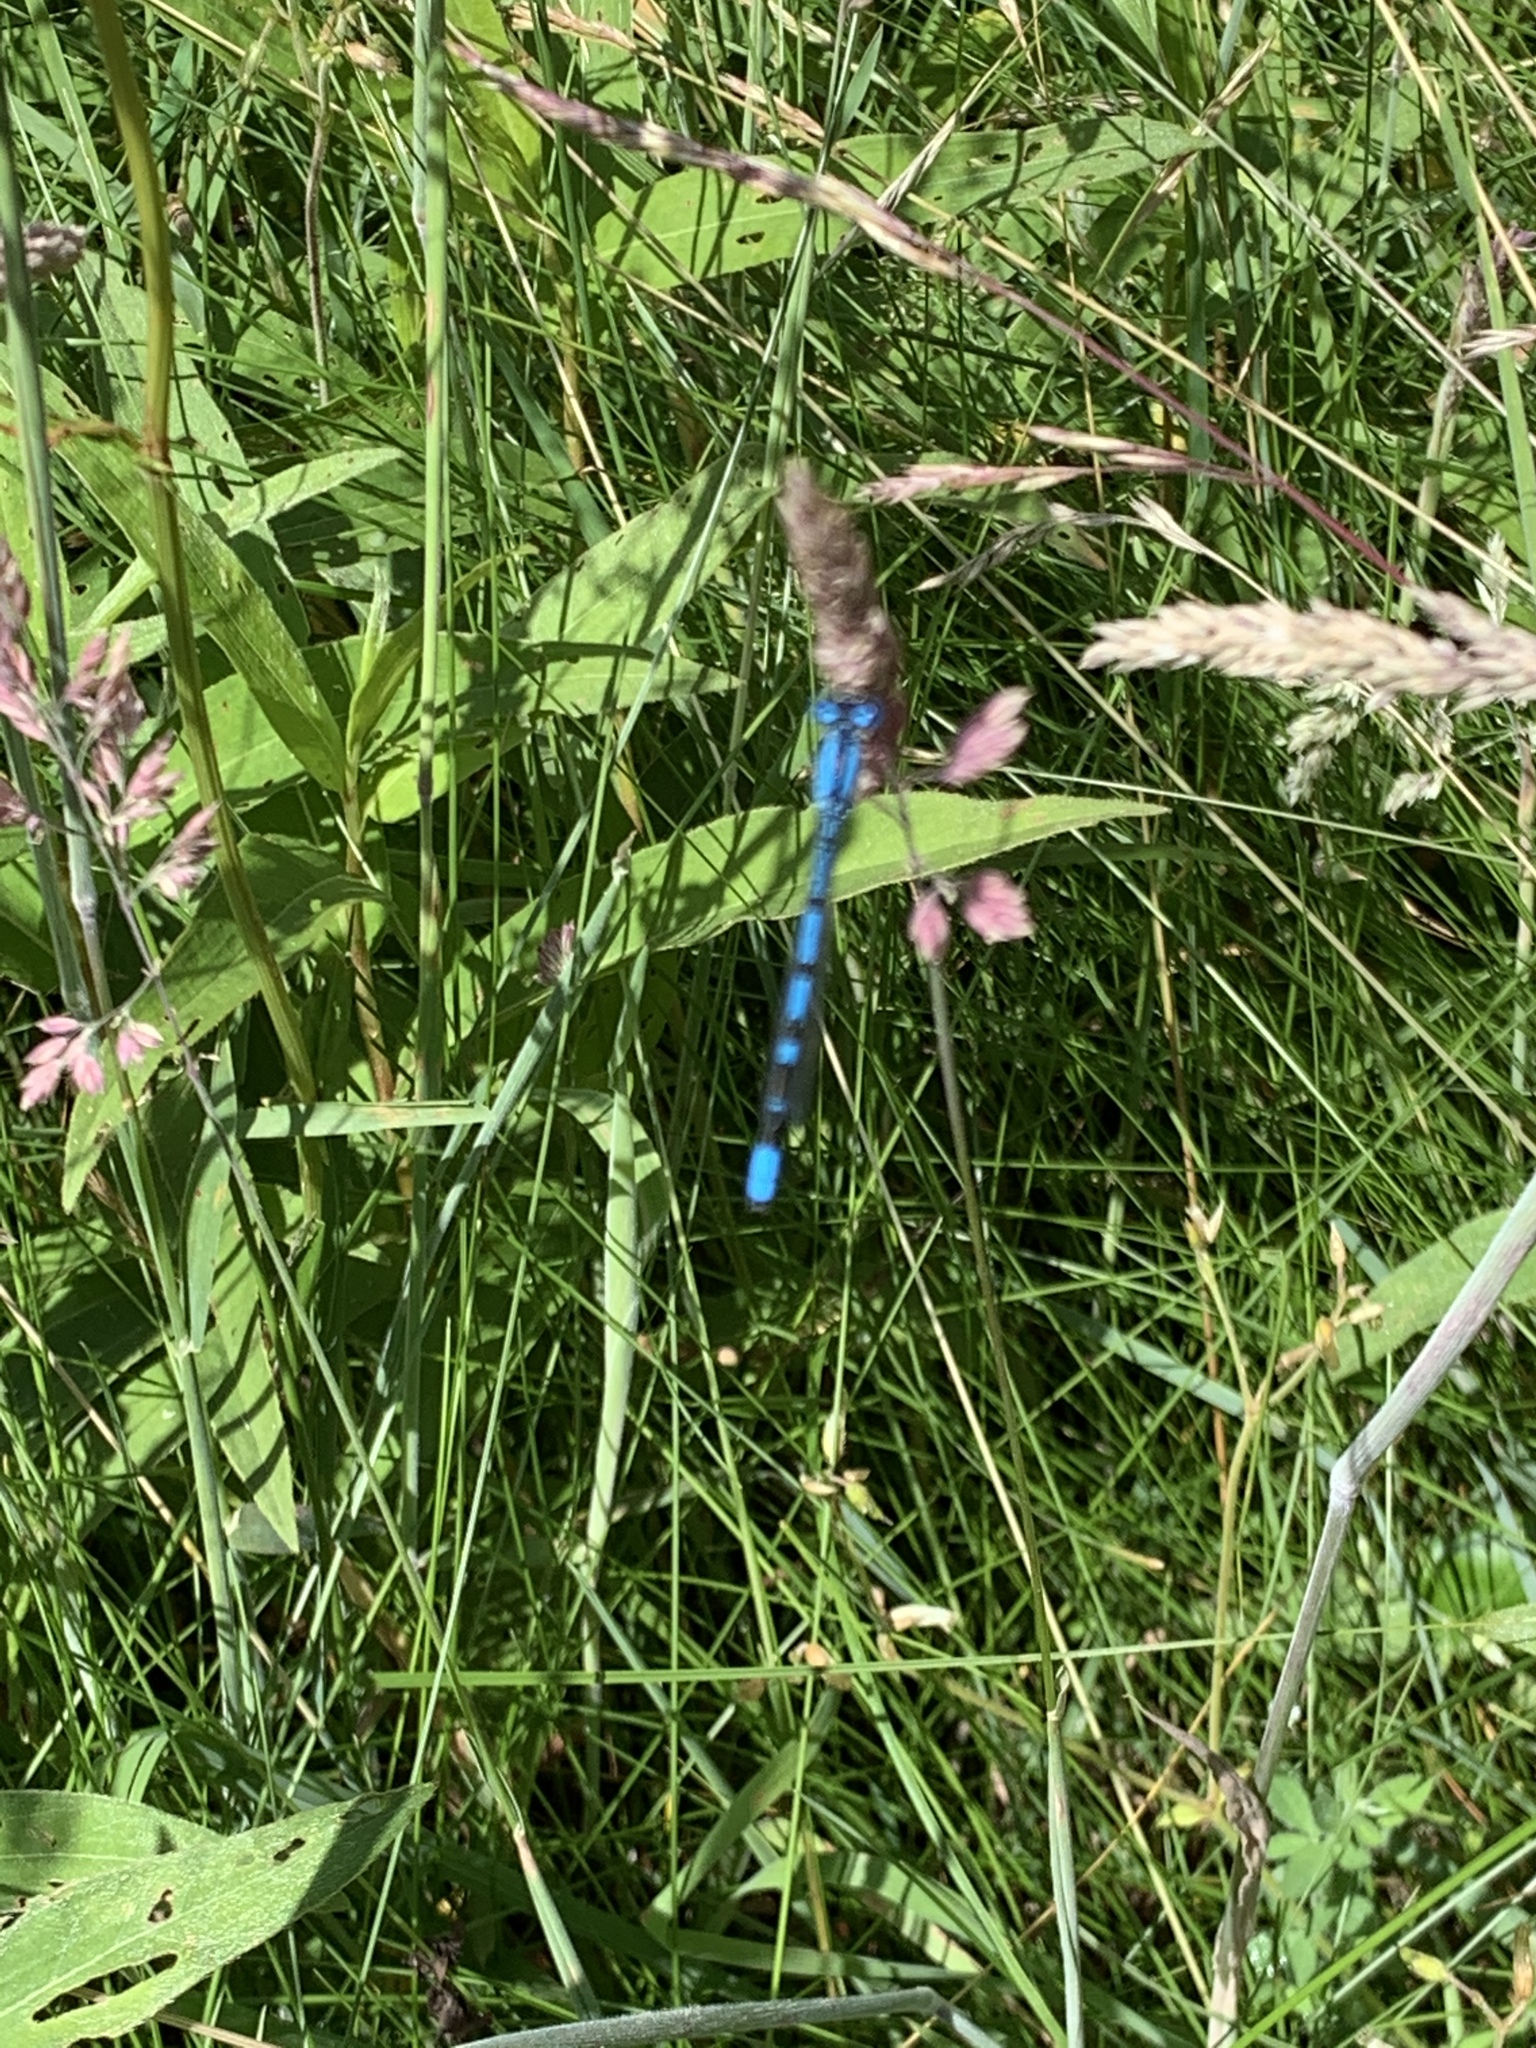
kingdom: Animalia
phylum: Arthropoda
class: Insecta
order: Odonata
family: Coenagrionidae
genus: Enallagma
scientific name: Enallagma cyathigerum
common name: Common blue damselfly
